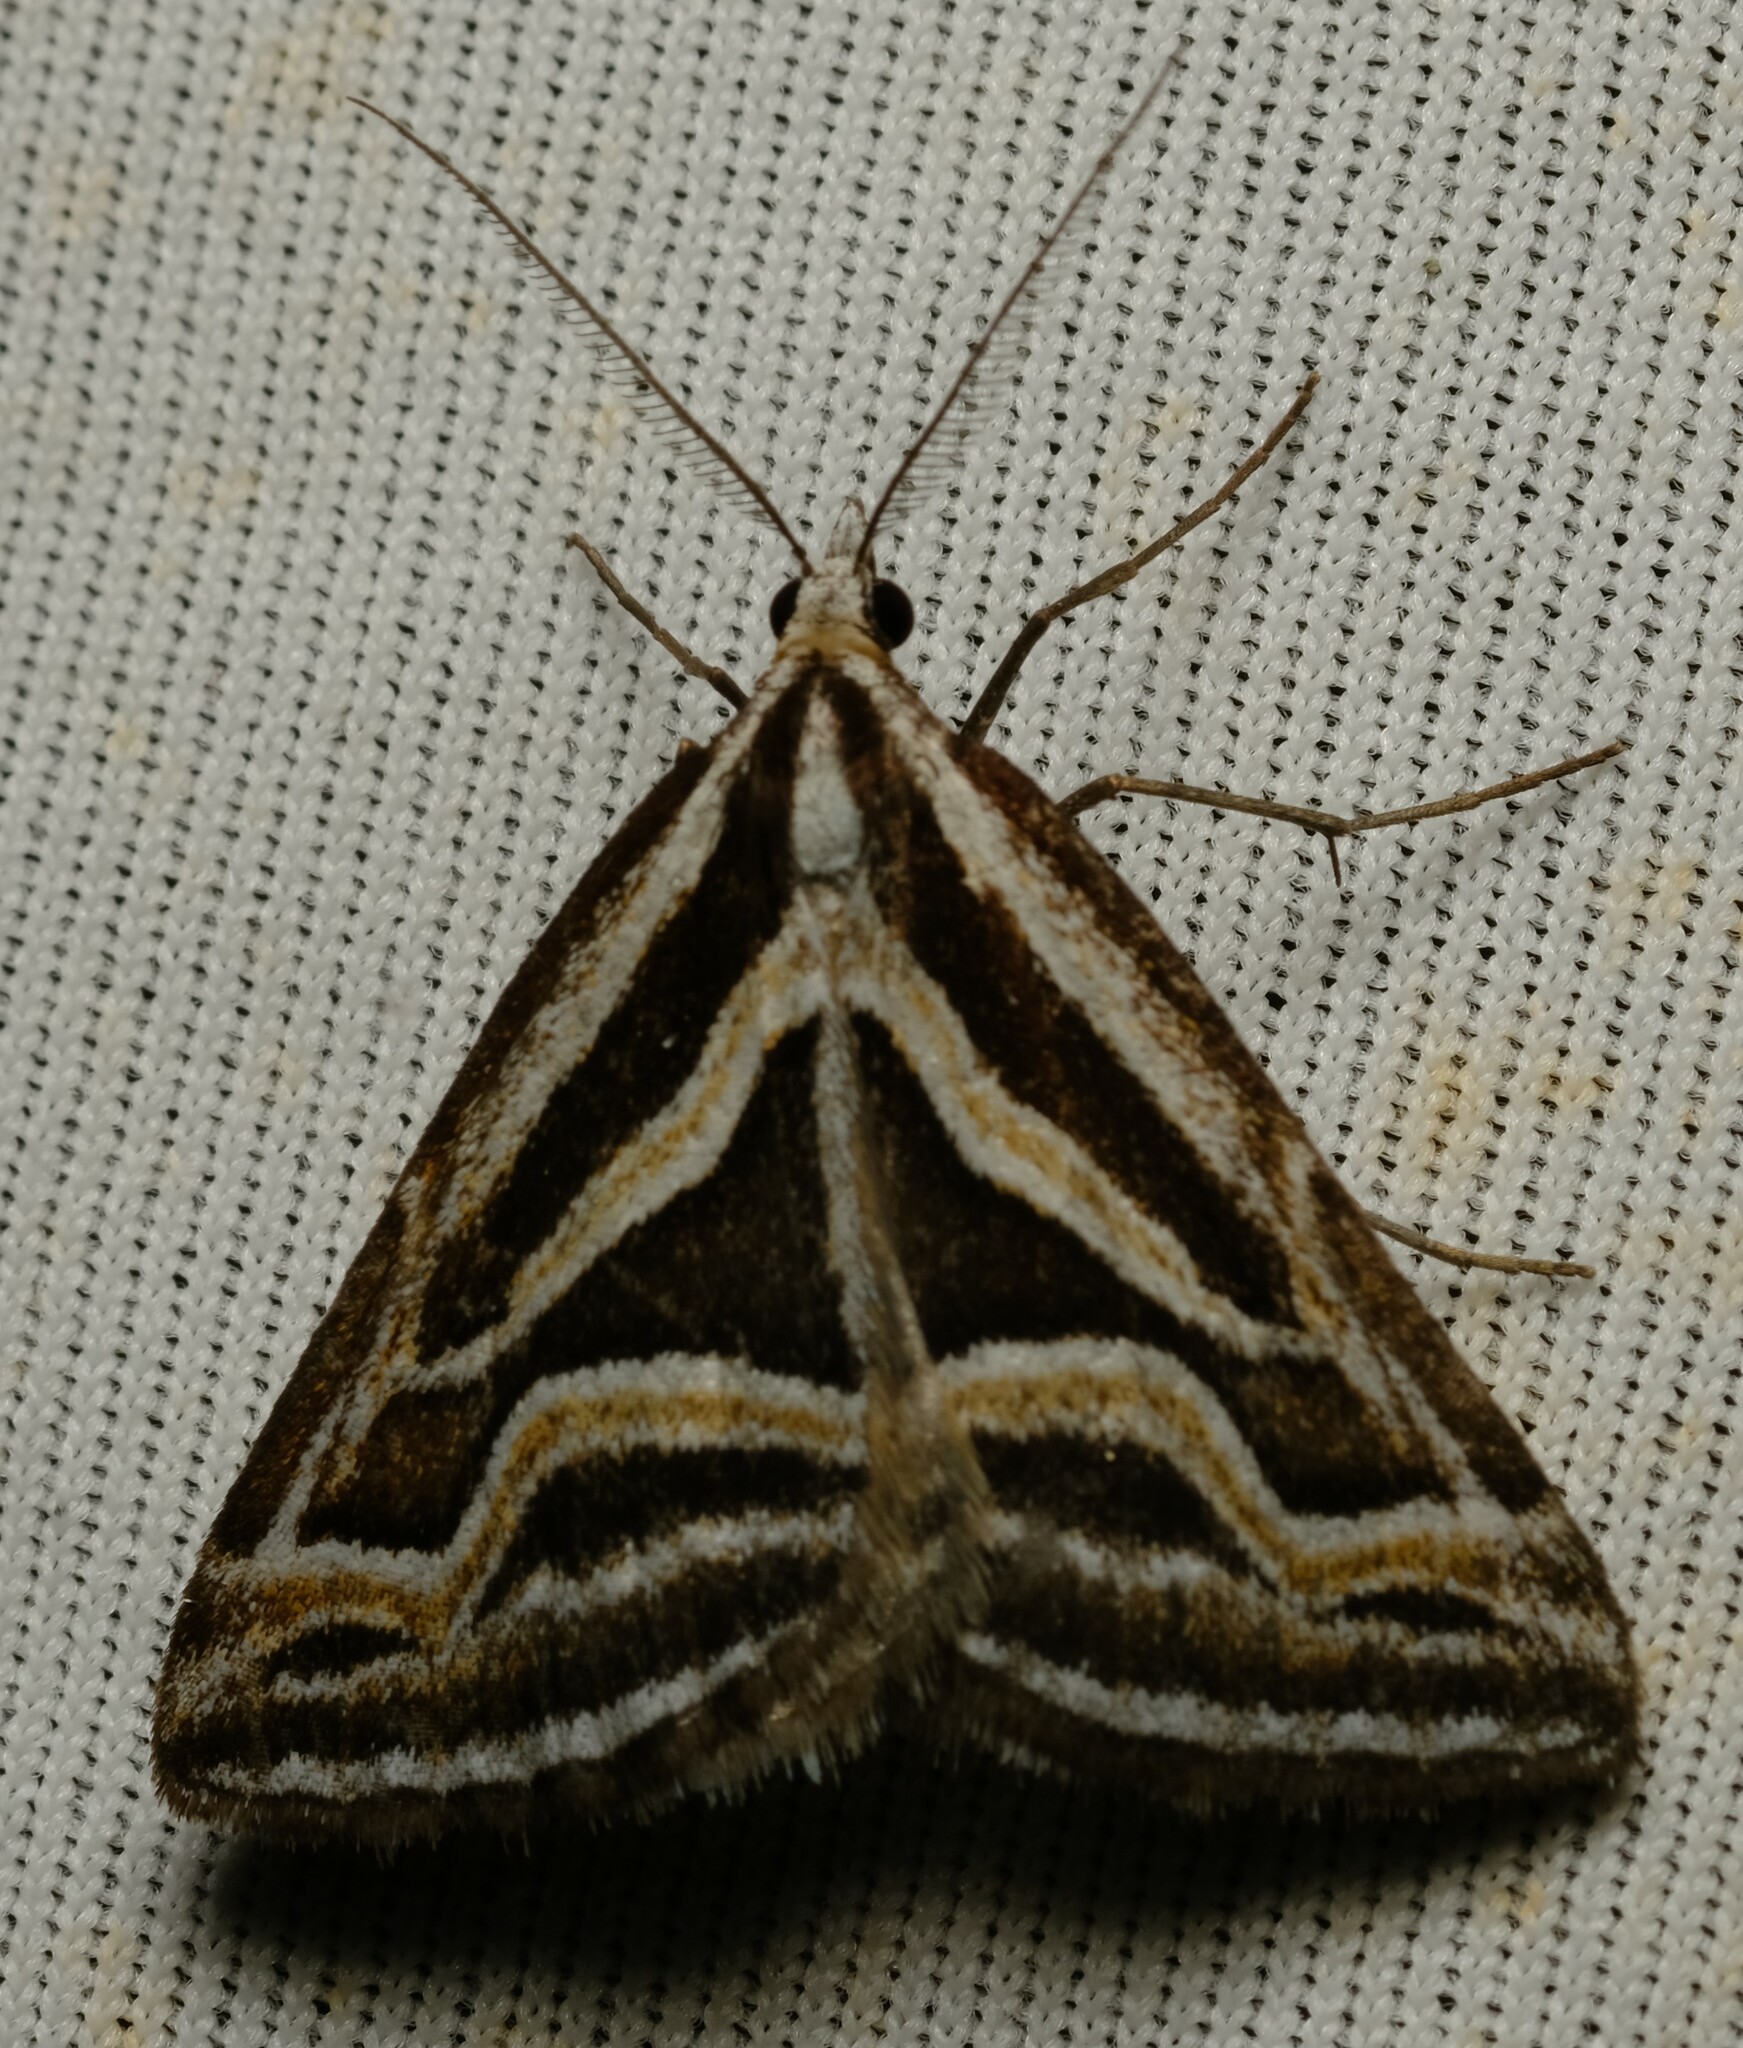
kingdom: Animalia
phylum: Arthropoda
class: Insecta
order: Lepidoptera
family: Geometridae
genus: Dichromodes
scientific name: Dichromodes confluaria
